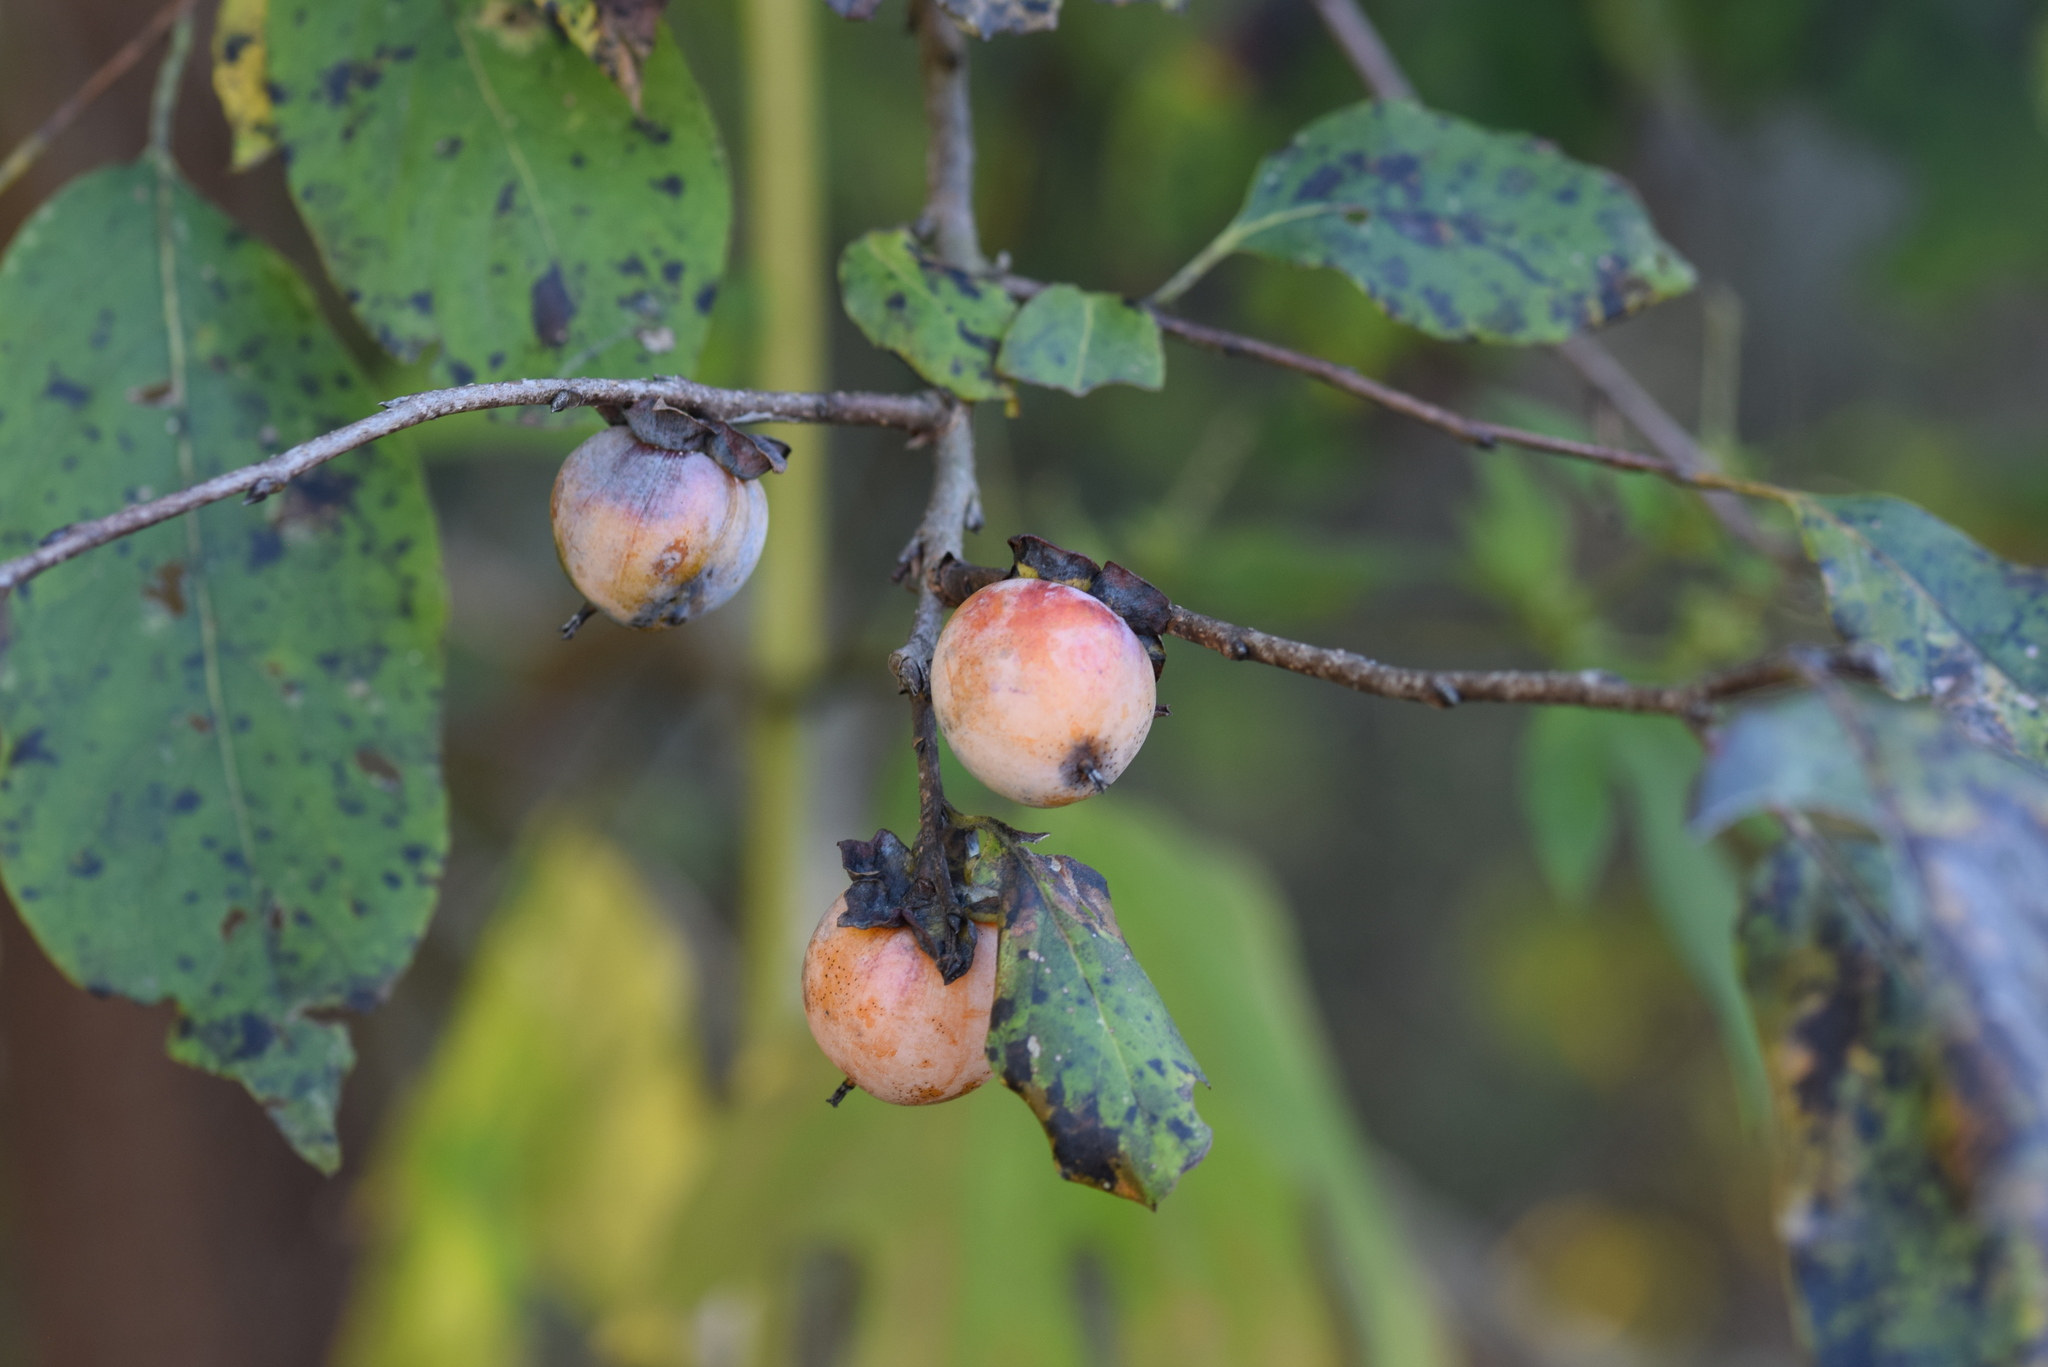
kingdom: Plantae
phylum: Tracheophyta
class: Magnoliopsida
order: Ericales
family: Ebenaceae
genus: Diospyros
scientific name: Diospyros virginiana
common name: Persimmon
